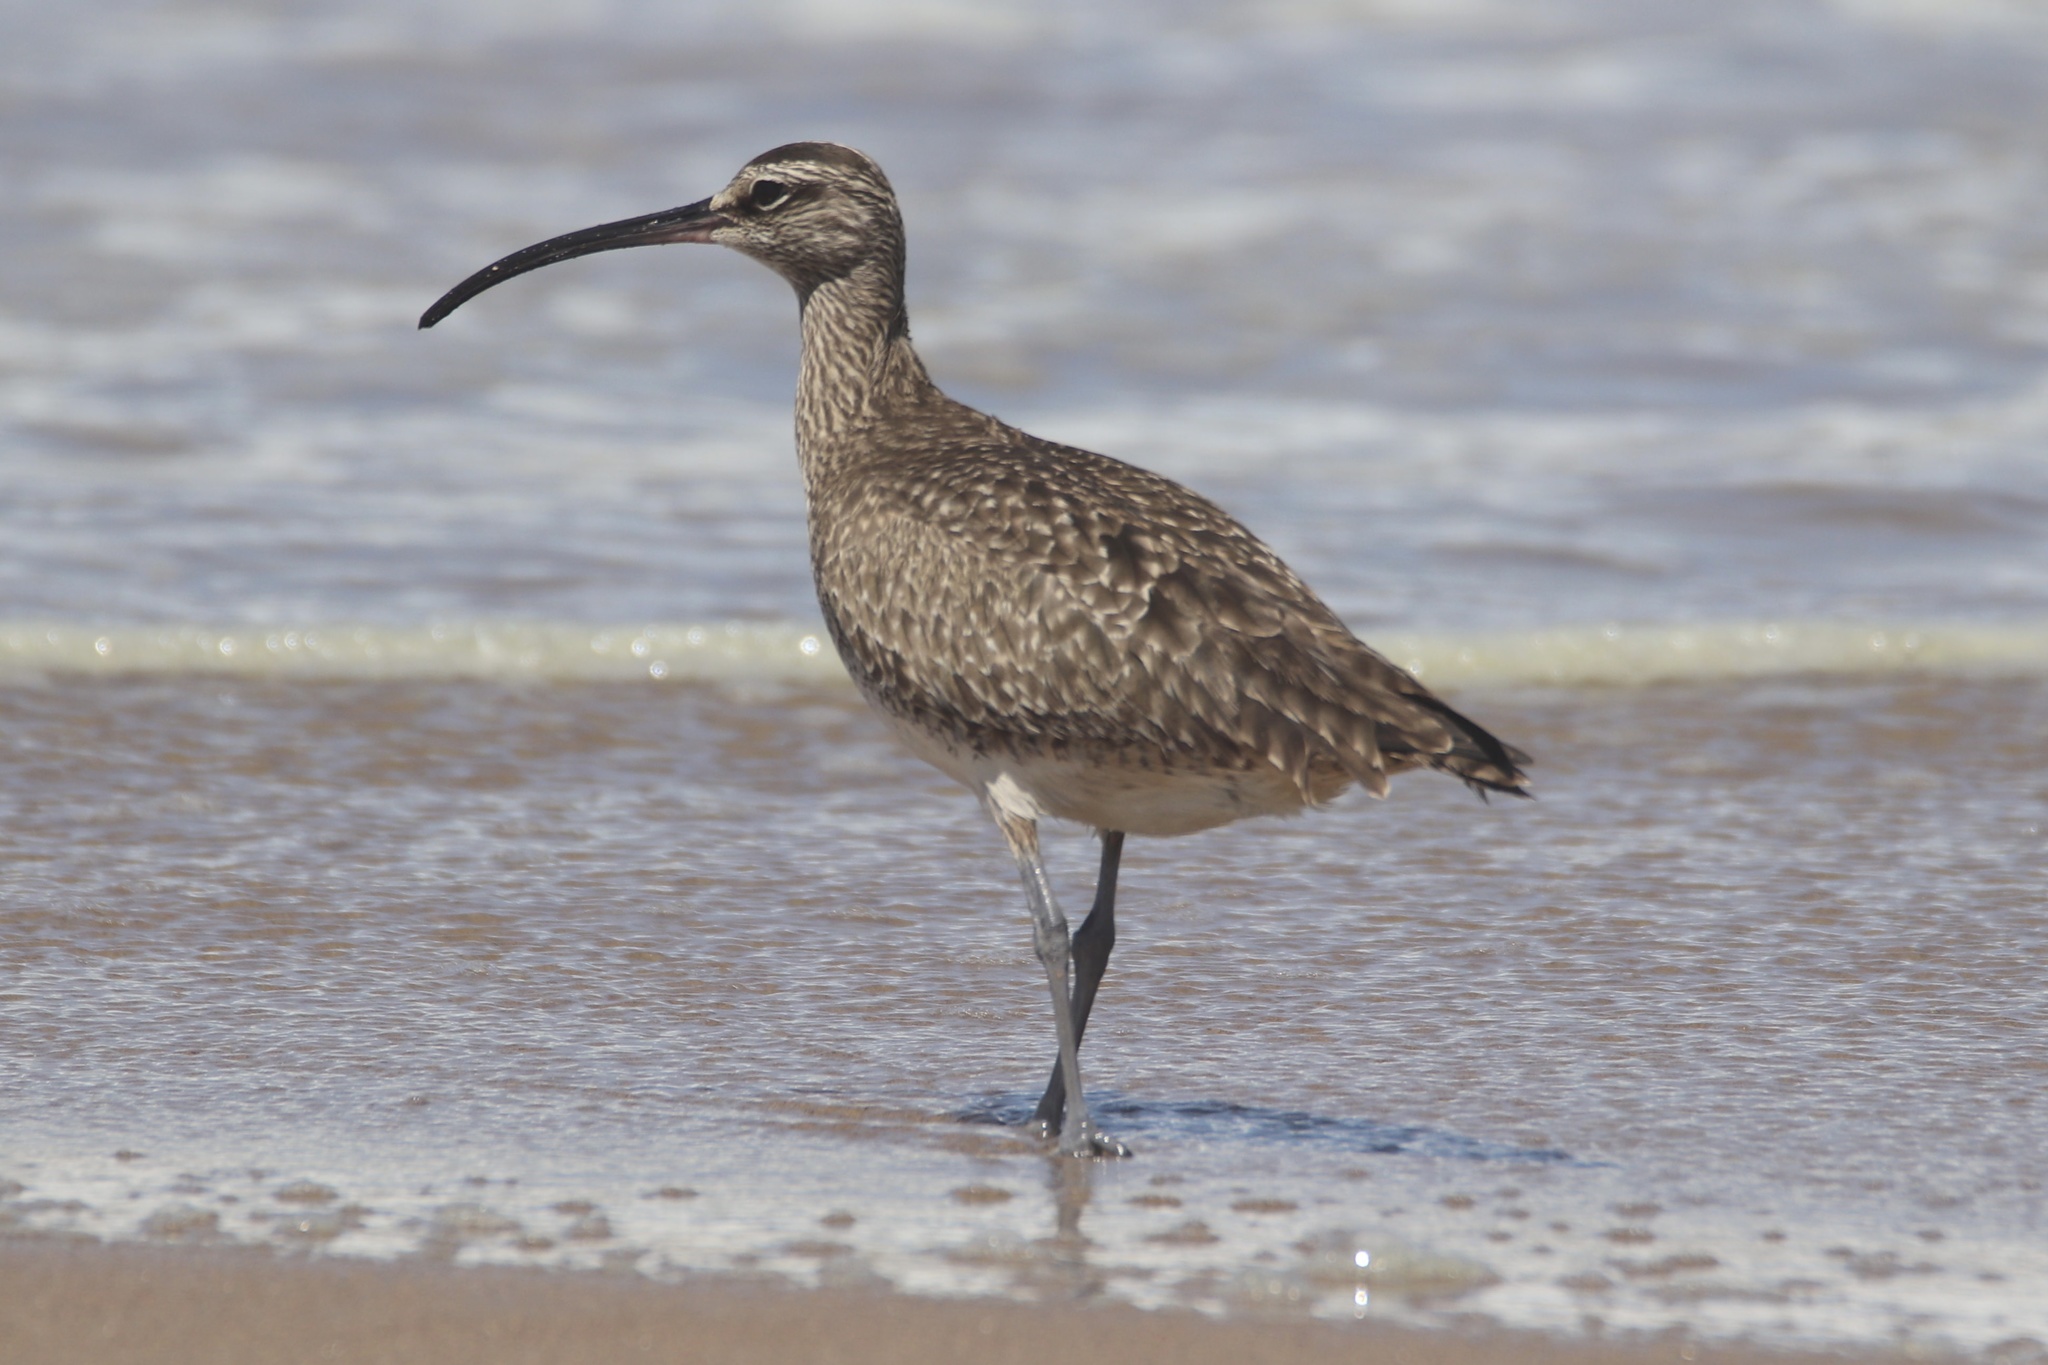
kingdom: Animalia
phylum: Chordata
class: Aves
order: Charadriiformes
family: Scolopacidae
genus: Numenius
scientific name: Numenius phaeopus
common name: Whimbrel
